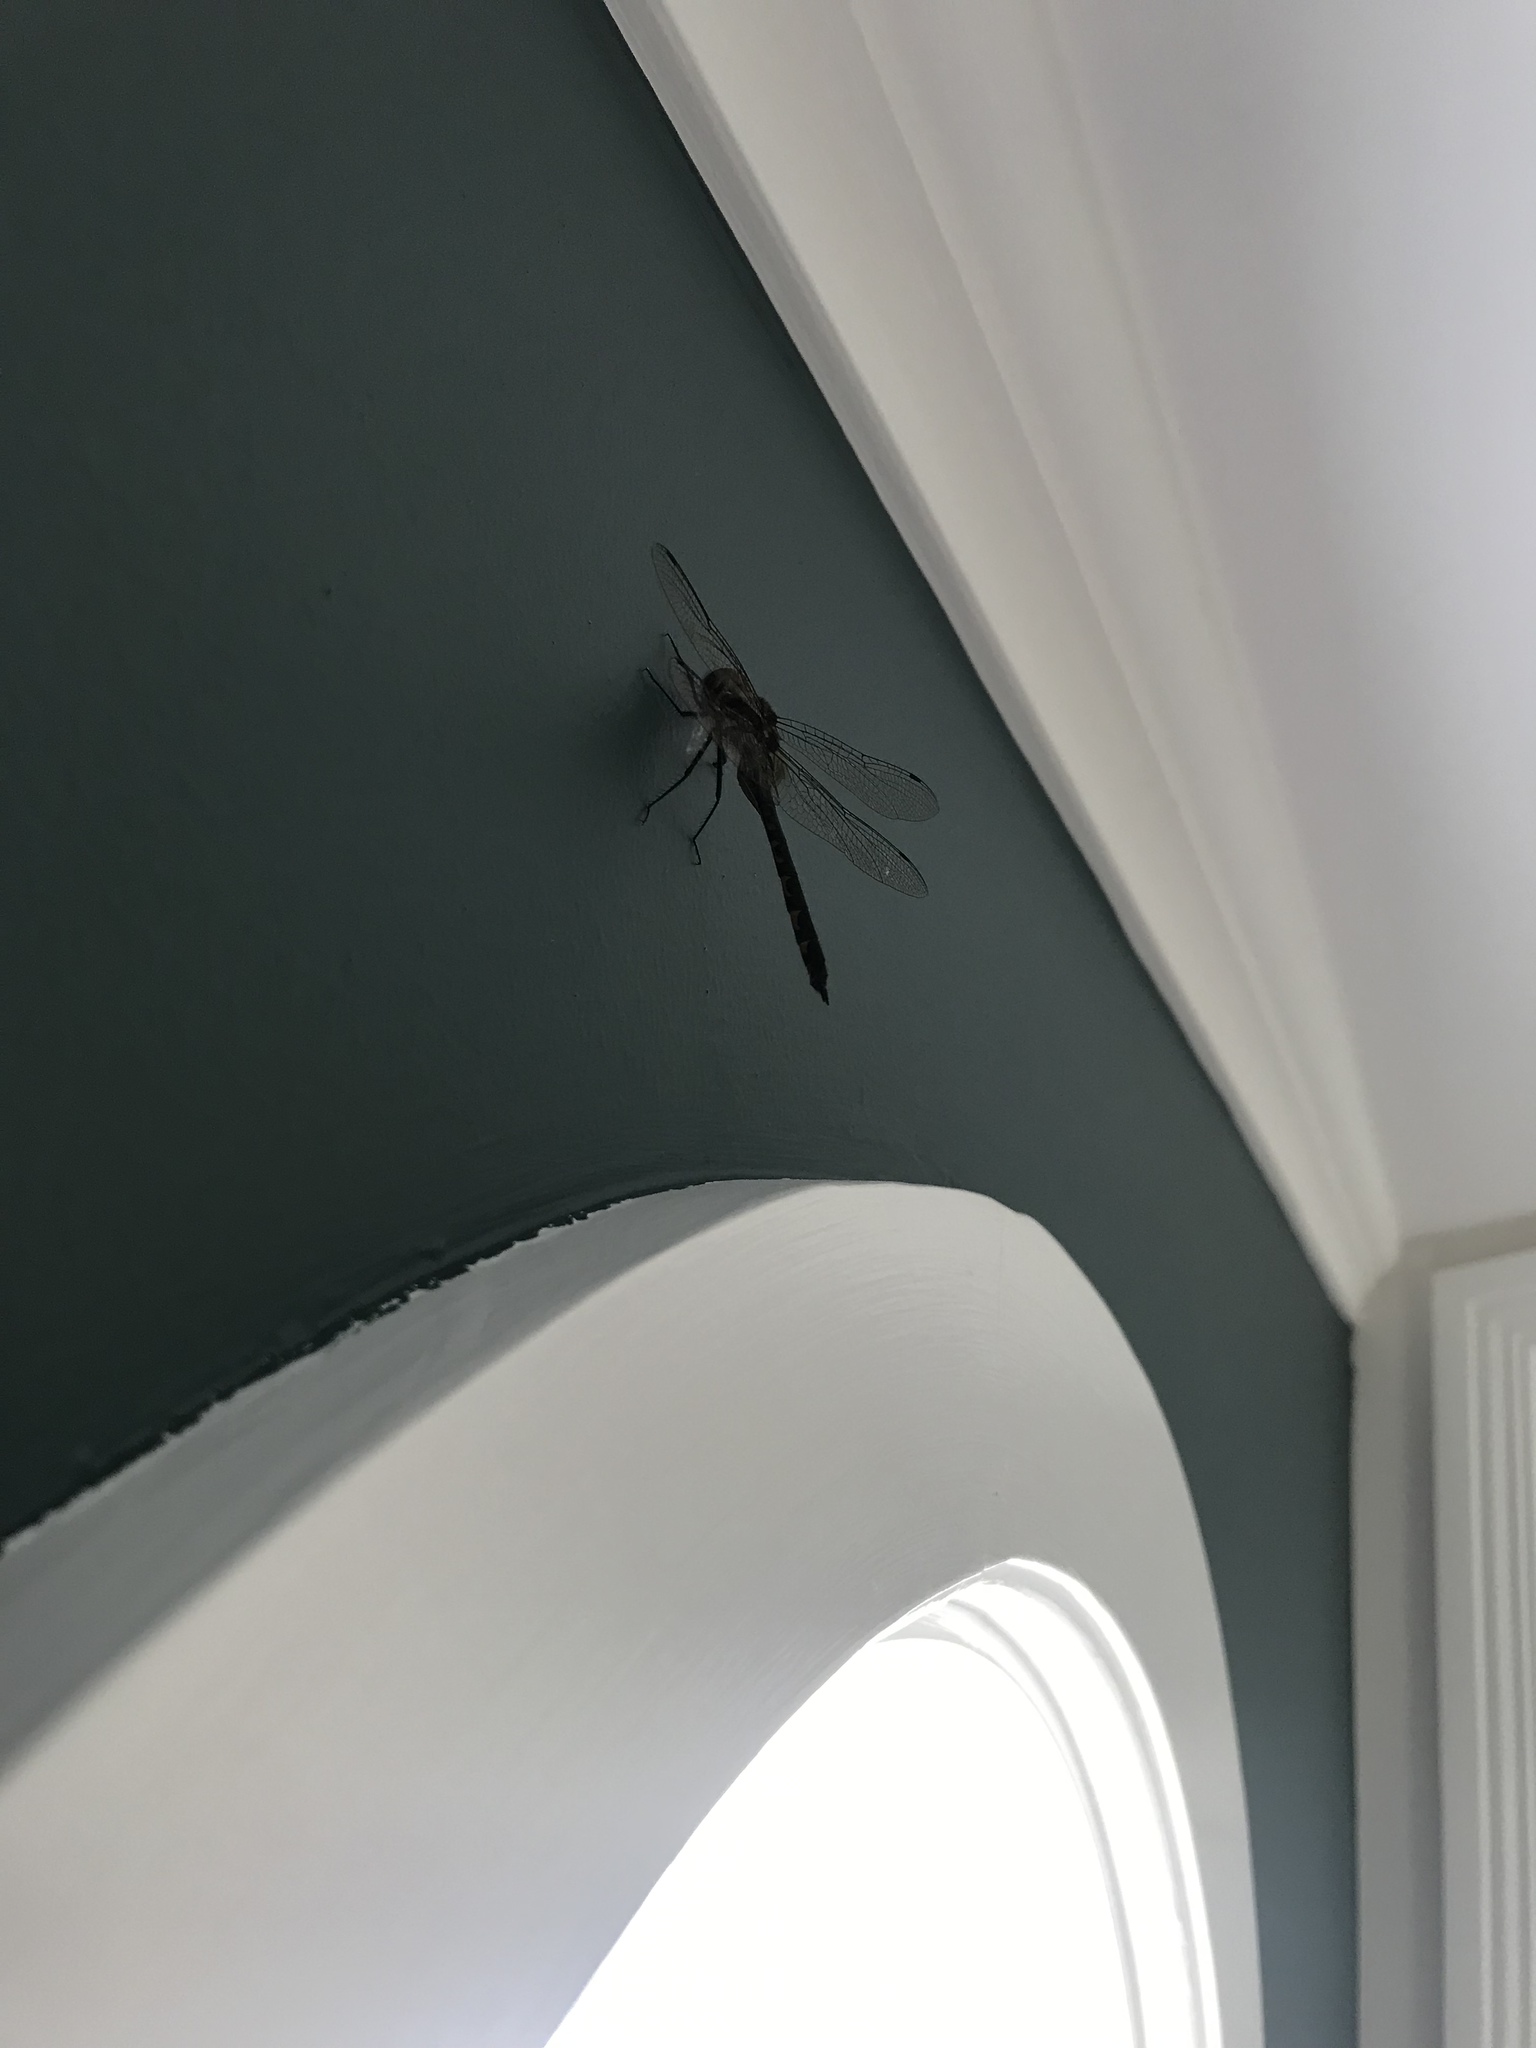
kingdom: Animalia
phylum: Arthropoda
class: Insecta
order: Odonata
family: Corduliidae
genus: Hemicordulia
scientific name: Hemicordulia armstrongi
